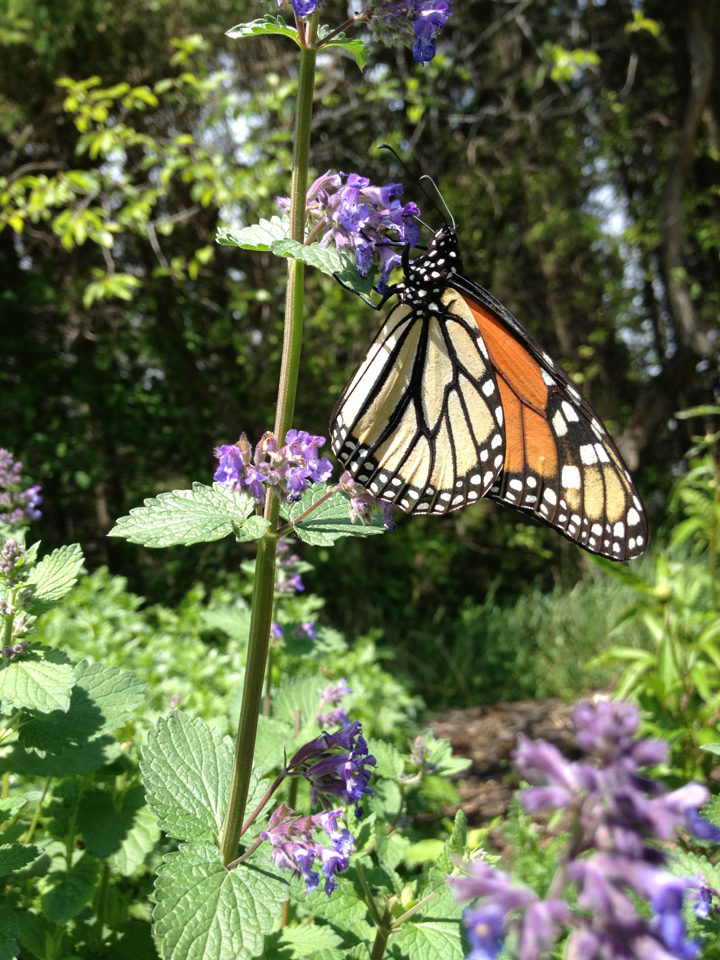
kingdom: Animalia
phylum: Arthropoda
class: Insecta
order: Lepidoptera
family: Nymphalidae
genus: Danaus
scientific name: Danaus plexippus
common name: Monarch
